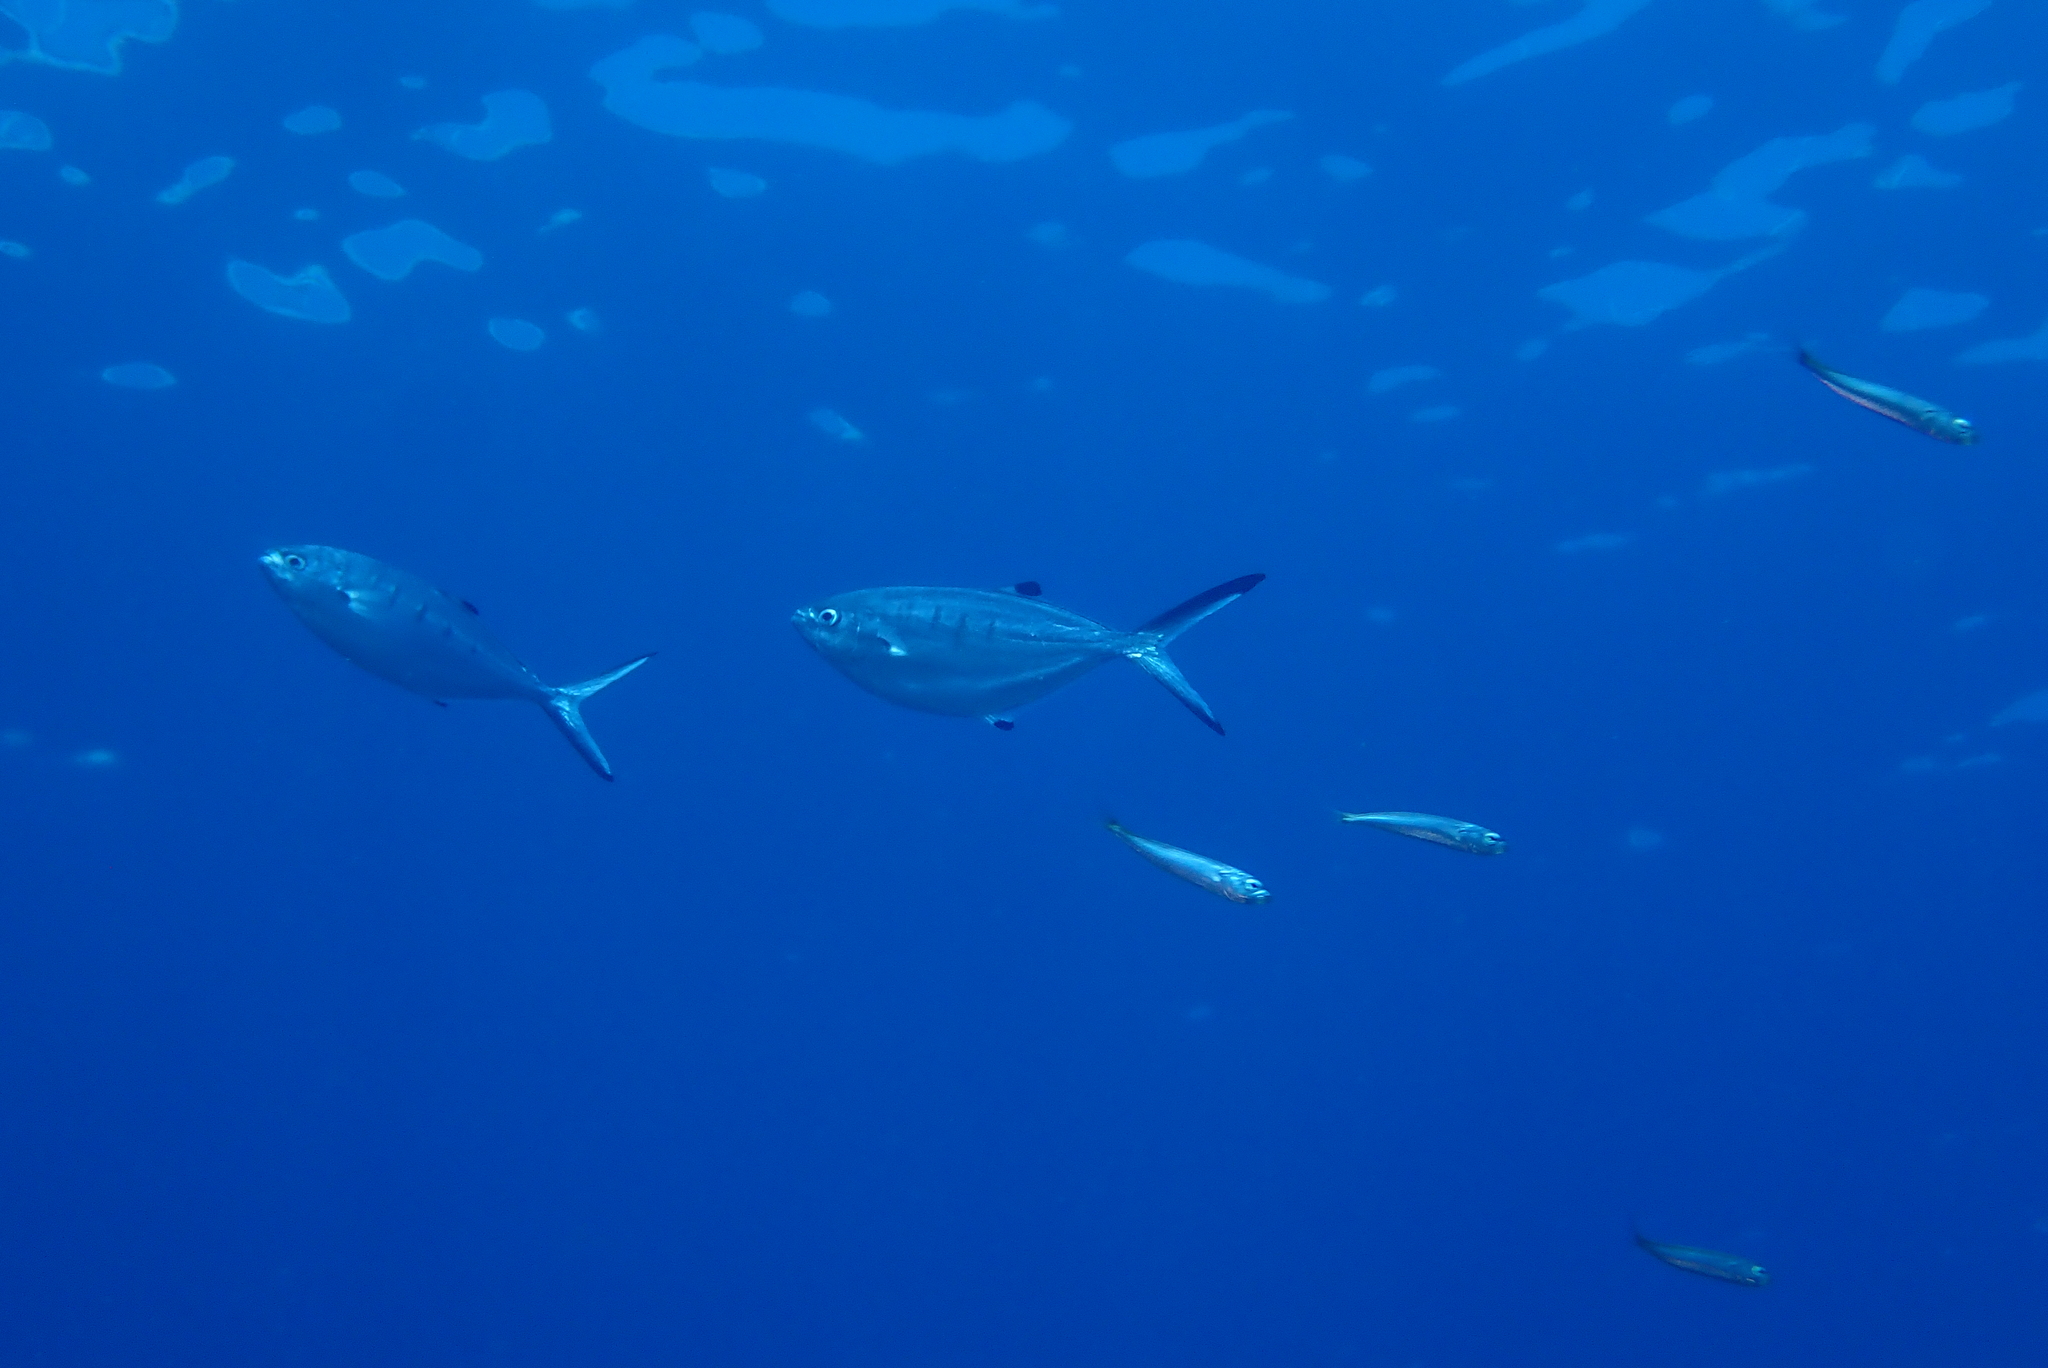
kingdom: Animalia
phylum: Chordata
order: Perciformes
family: Carangidae
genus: Trachinotus
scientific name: Trachinotus ovatus
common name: Pompano
